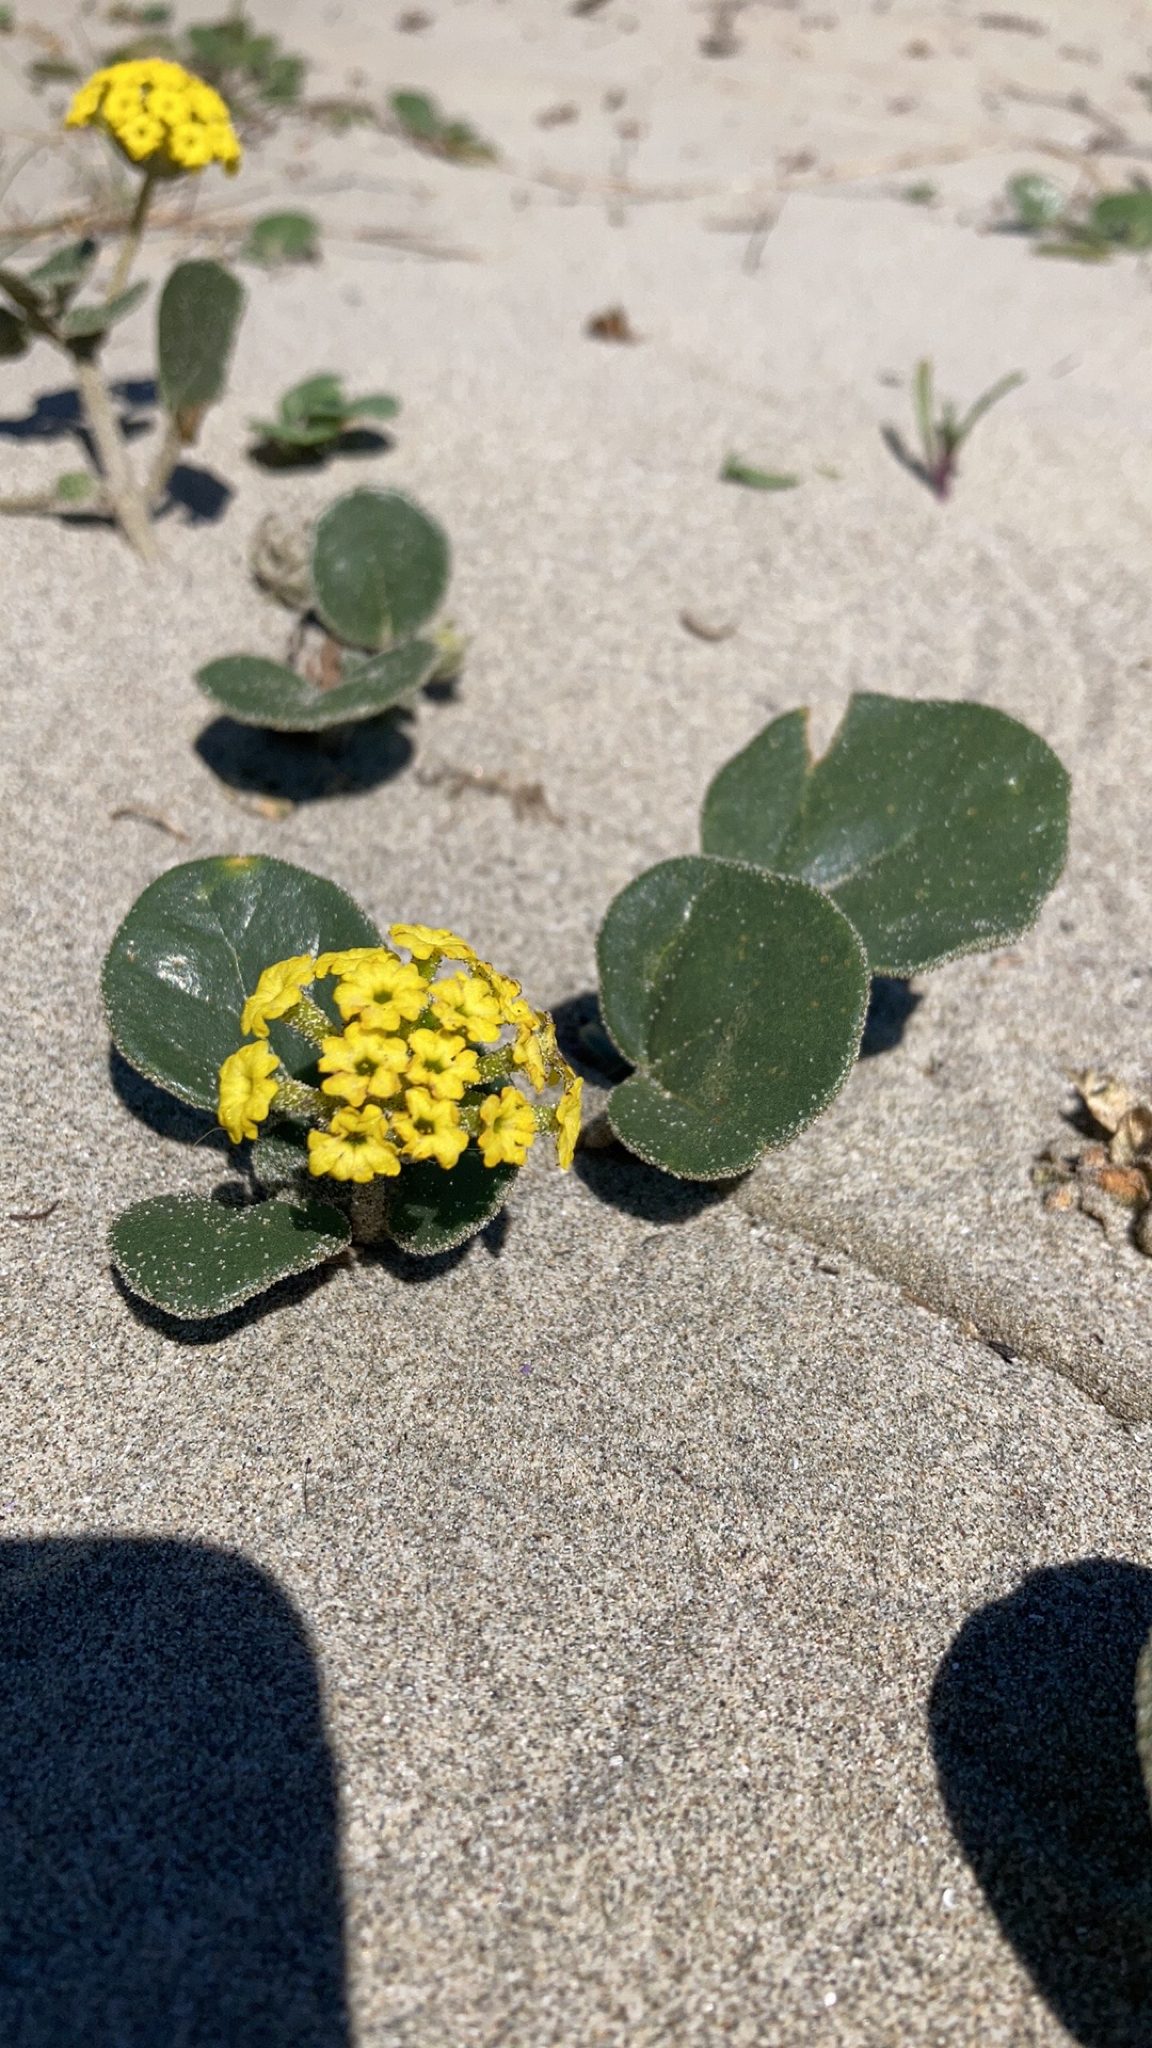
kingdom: Plantae
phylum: Tracheophyta
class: Magnoliopsida
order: Caryophyllales
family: Nyctaginaceae
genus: Abronia
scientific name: Abronia latifolia
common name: Yellow sand-verbena
